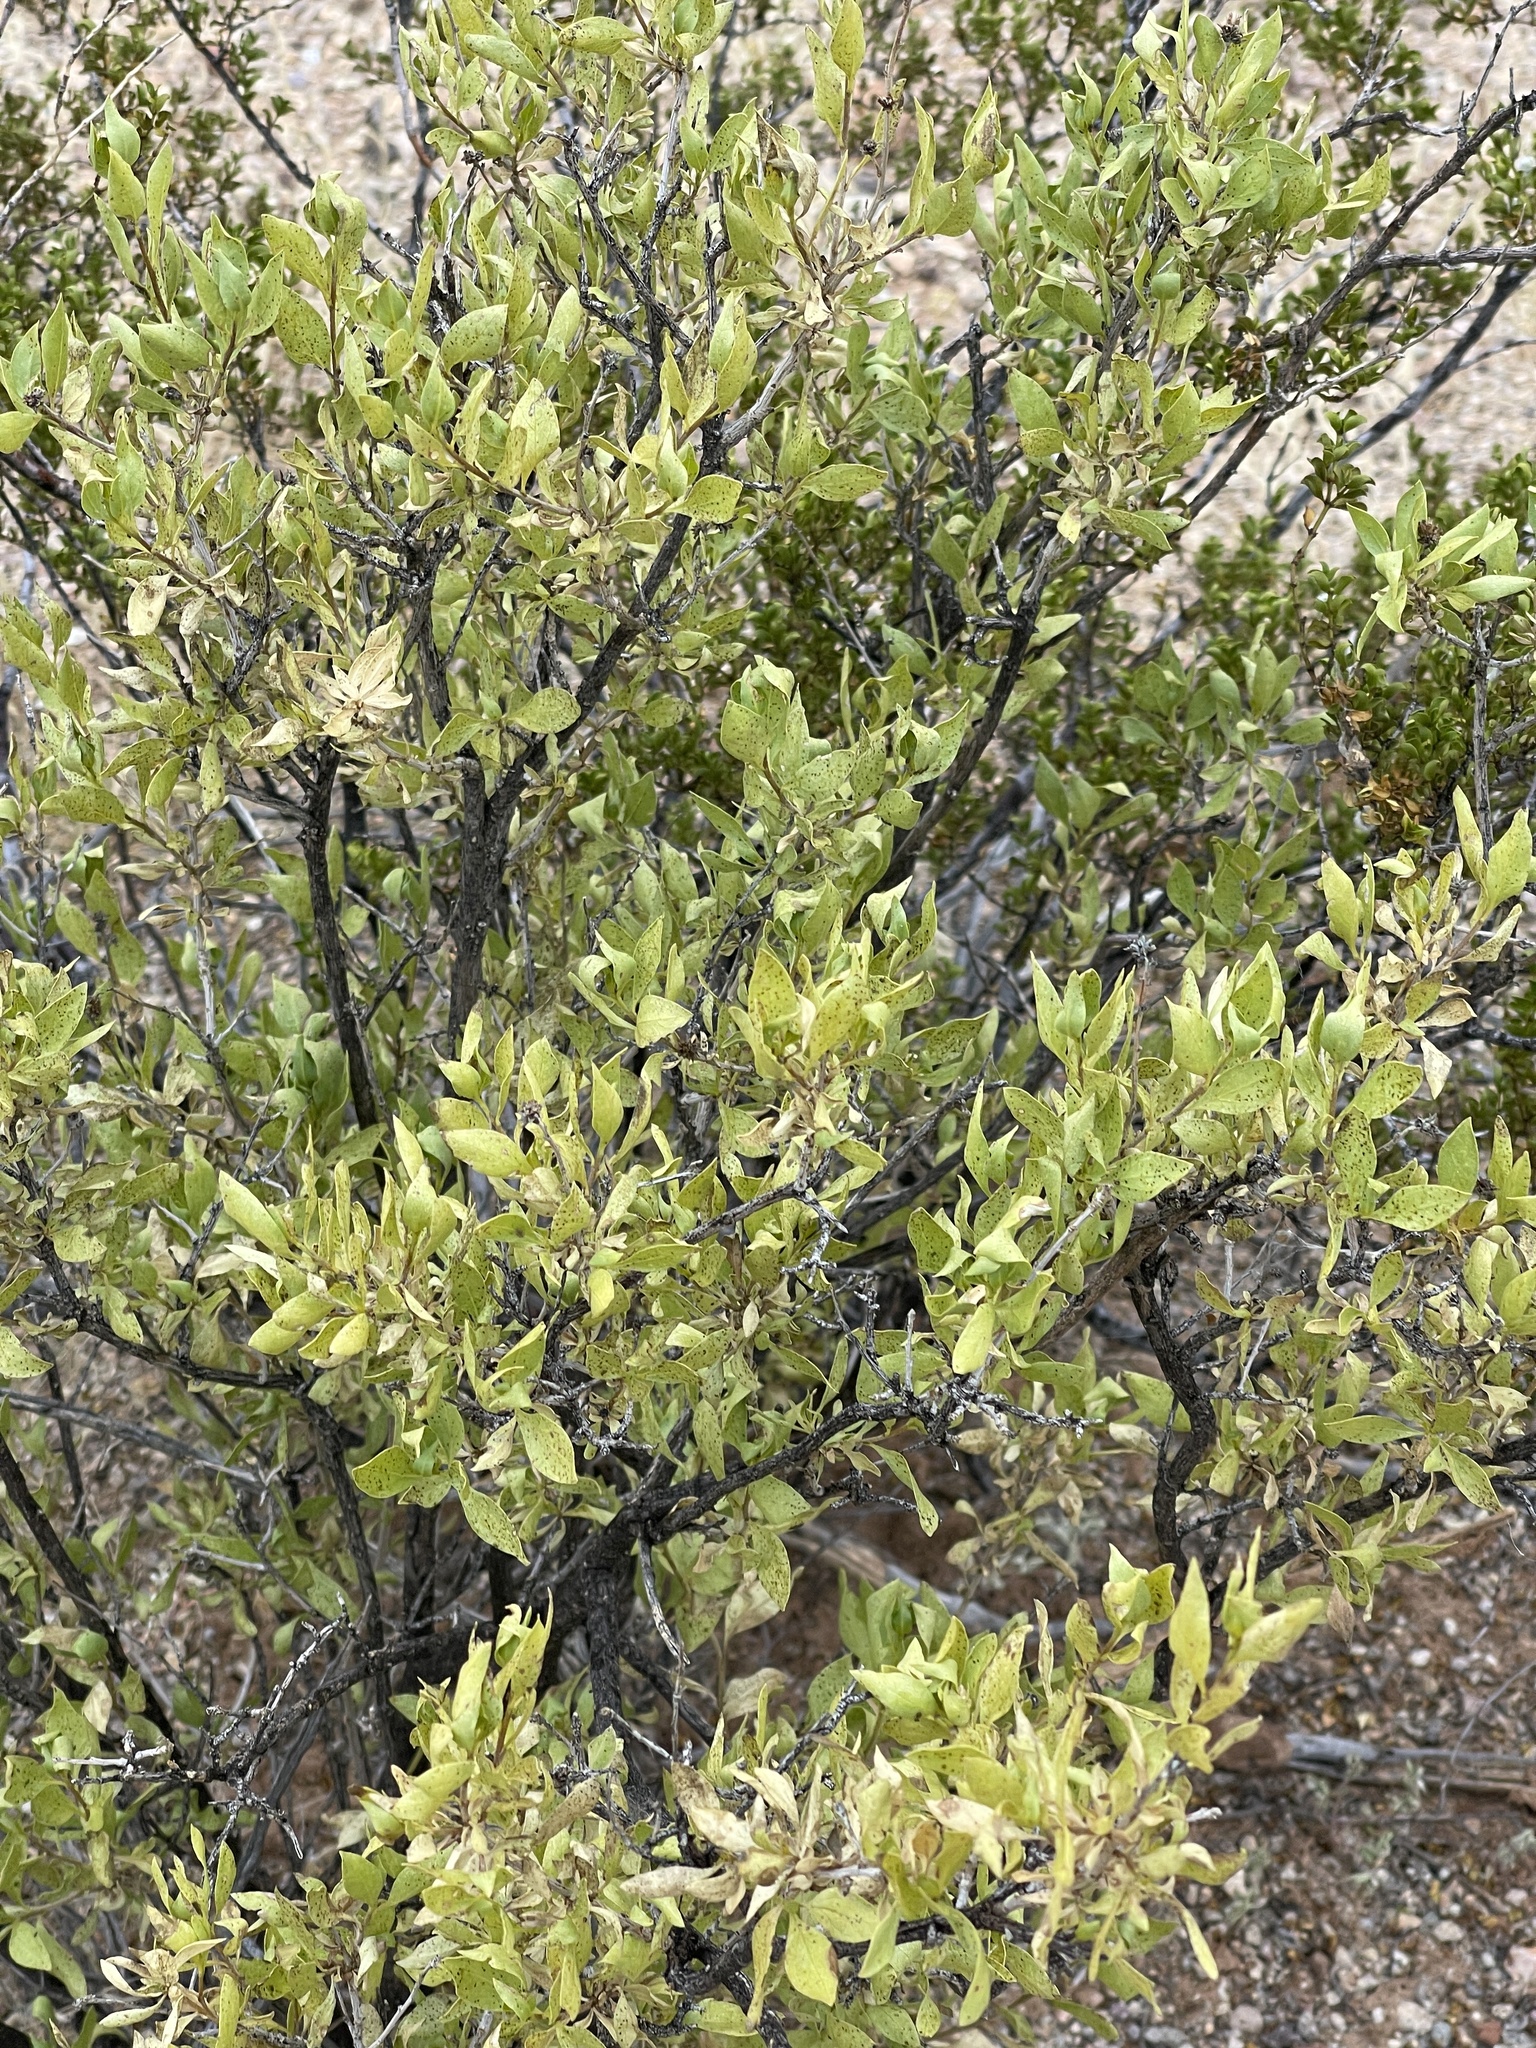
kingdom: Plantae
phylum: Tracheophyta
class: Magnoliopsida
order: Asterales
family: Asteraceae
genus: Flourensia
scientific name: Flourensia cernua
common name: Varnishbush
